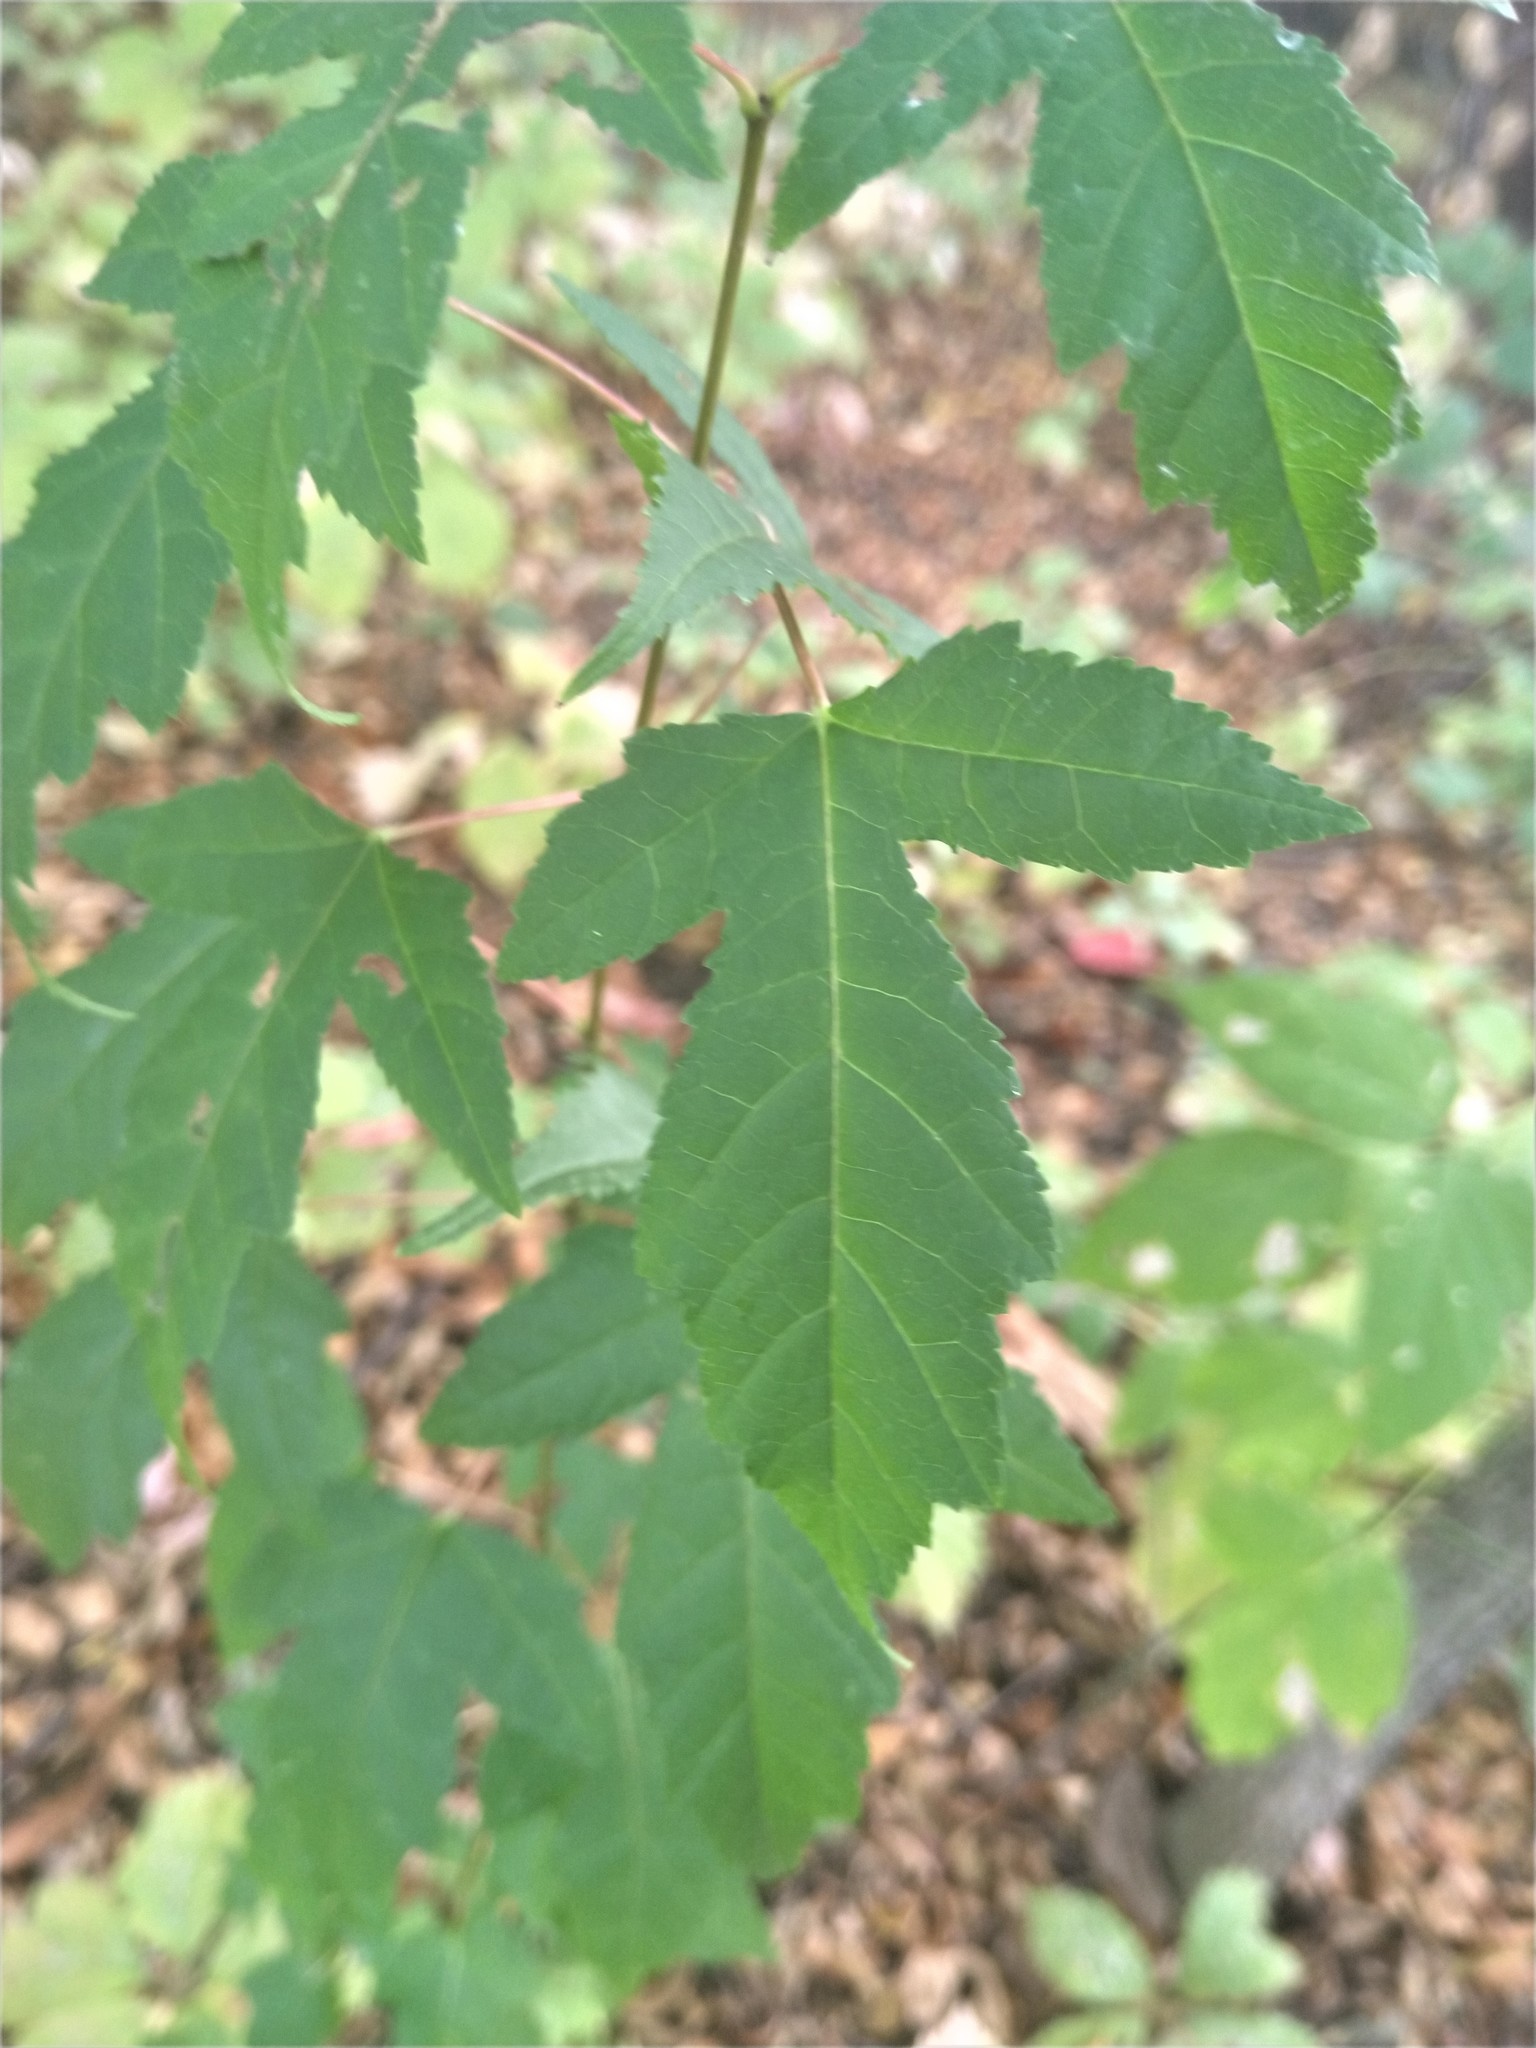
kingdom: Plantae
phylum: Tracheophyta
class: Magnoliopsida
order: Sapindales
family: Sapindaceae
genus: Acer
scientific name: Acer tataricum
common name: Tartar maple
